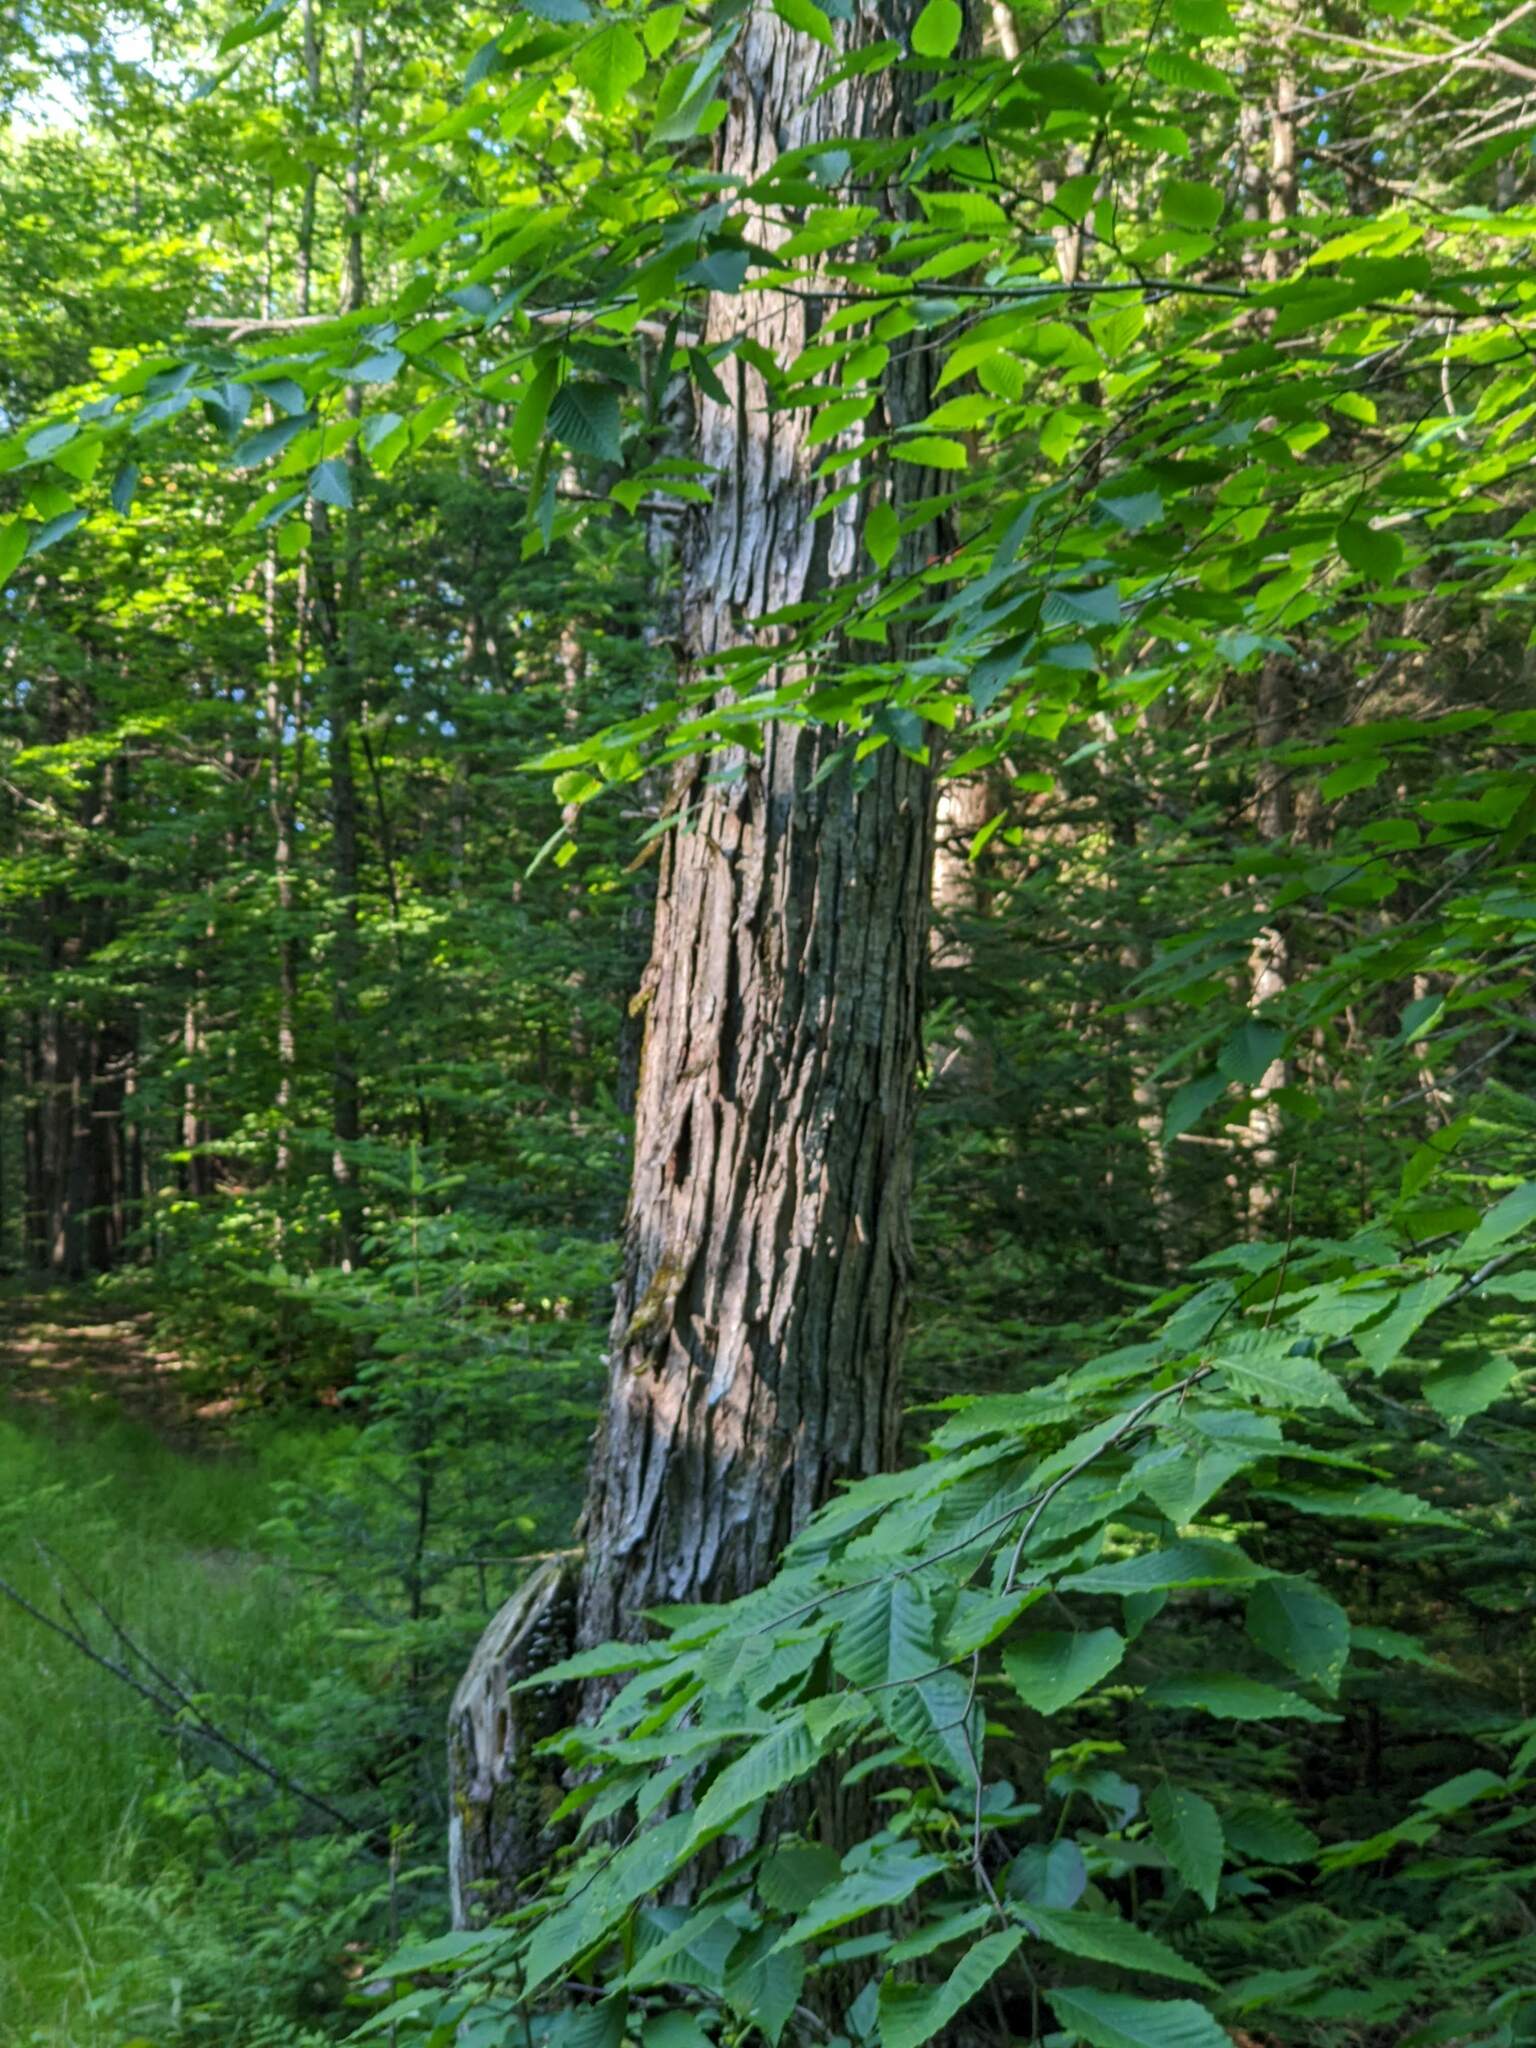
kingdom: Plantae
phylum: Tracheophyta
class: Magnoliopsida
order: Fagales
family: Fagaceae
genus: Fagus
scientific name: Fagus grandifolia
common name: American beech
